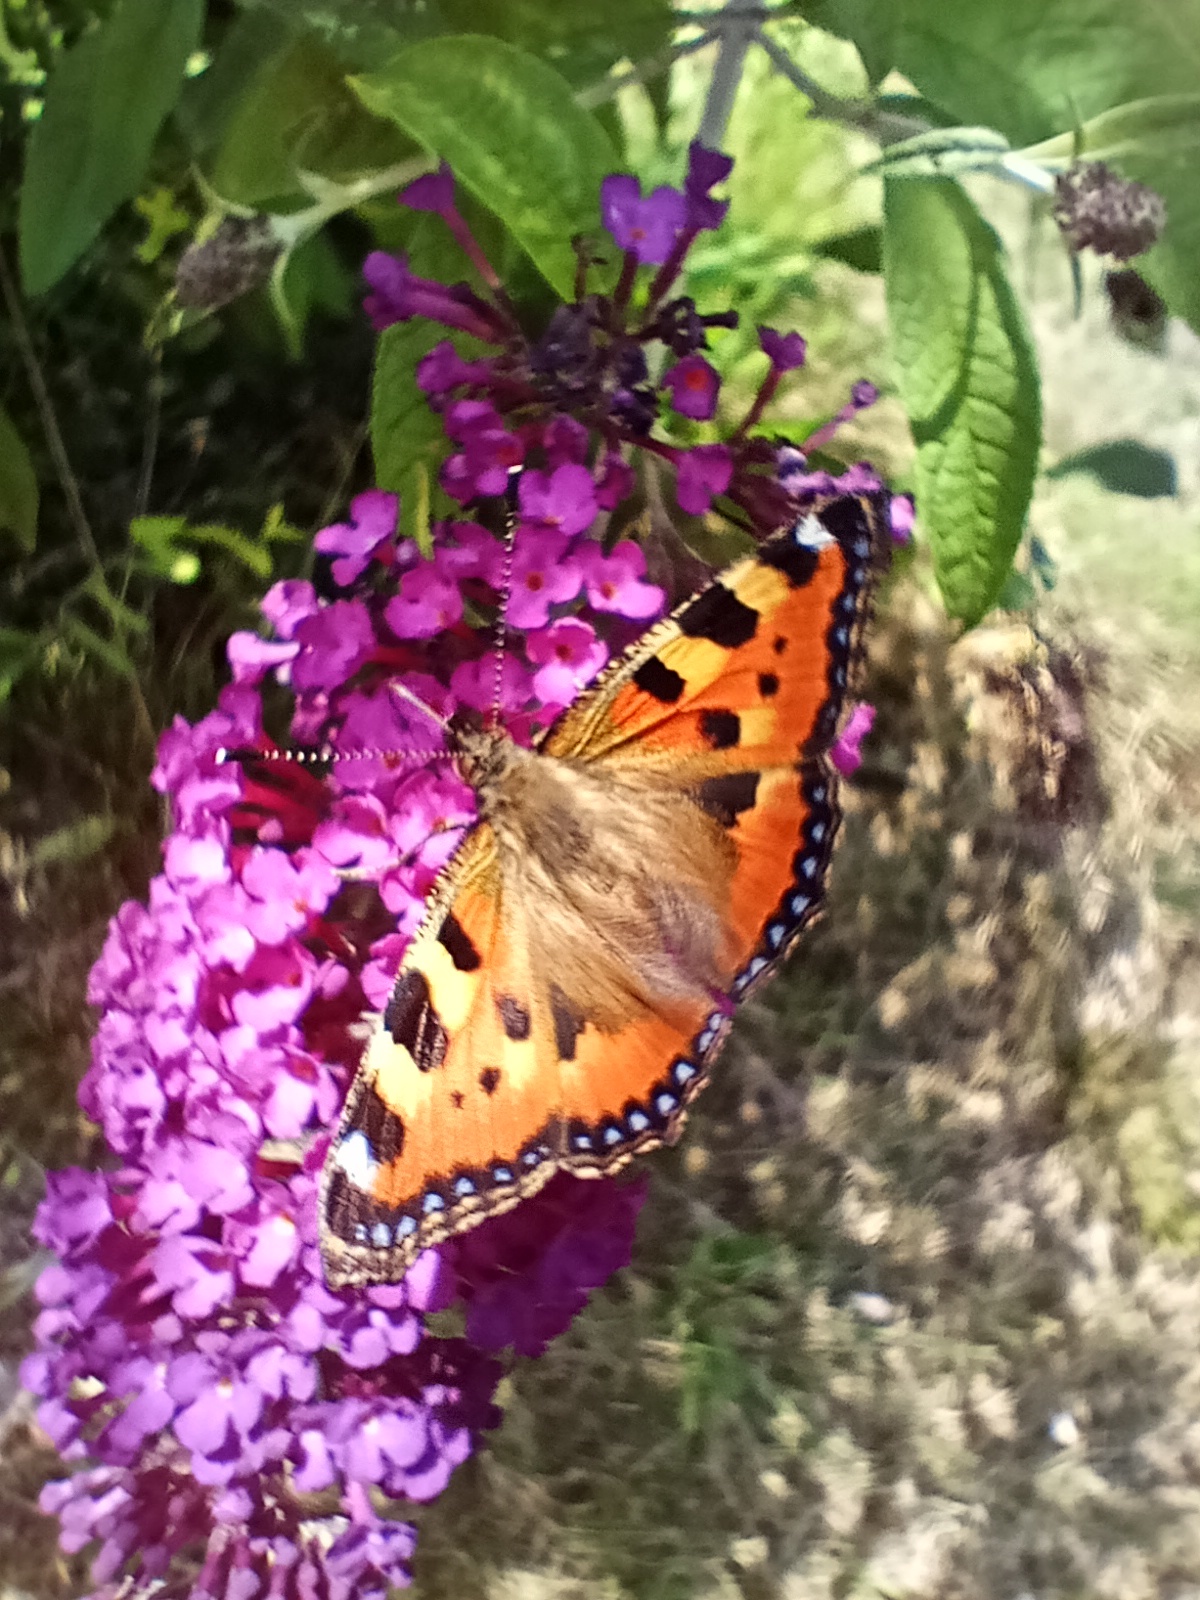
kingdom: Animalia
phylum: Arthropoda
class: Insecta
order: Lepidoptera
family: Nymphalidae
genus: Aglais
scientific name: Aglais urticae
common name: Small tortoiseshell
